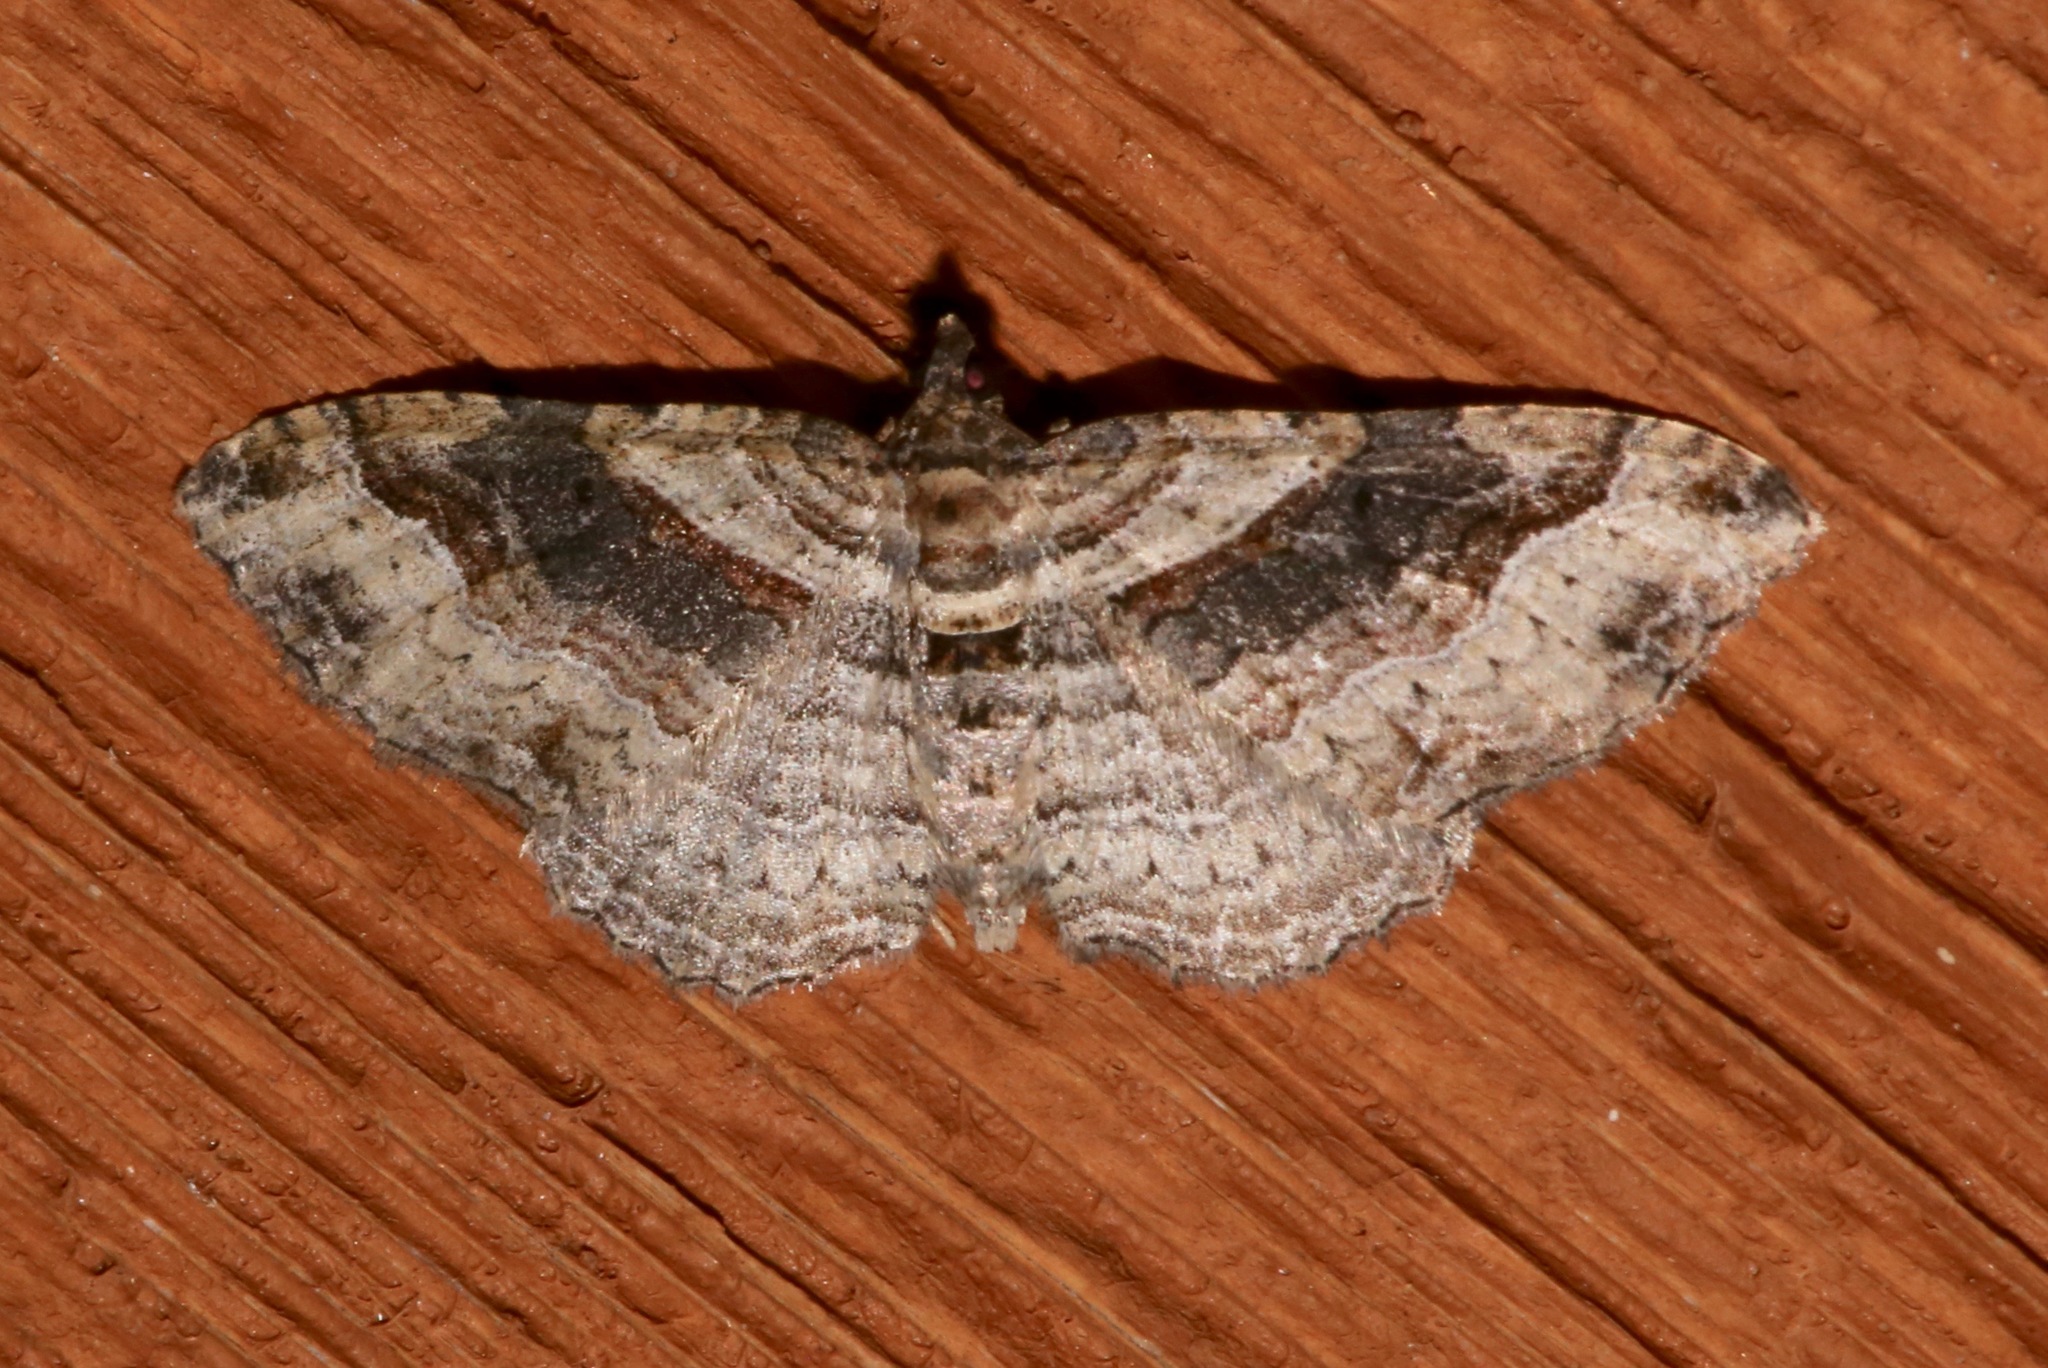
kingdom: Animalia
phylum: Arthropoda
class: Insecta
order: Lepidoptera
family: Geometridae
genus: Costaconvexa
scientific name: Costaconvexa centrostrigaria
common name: Bent-line carpet
